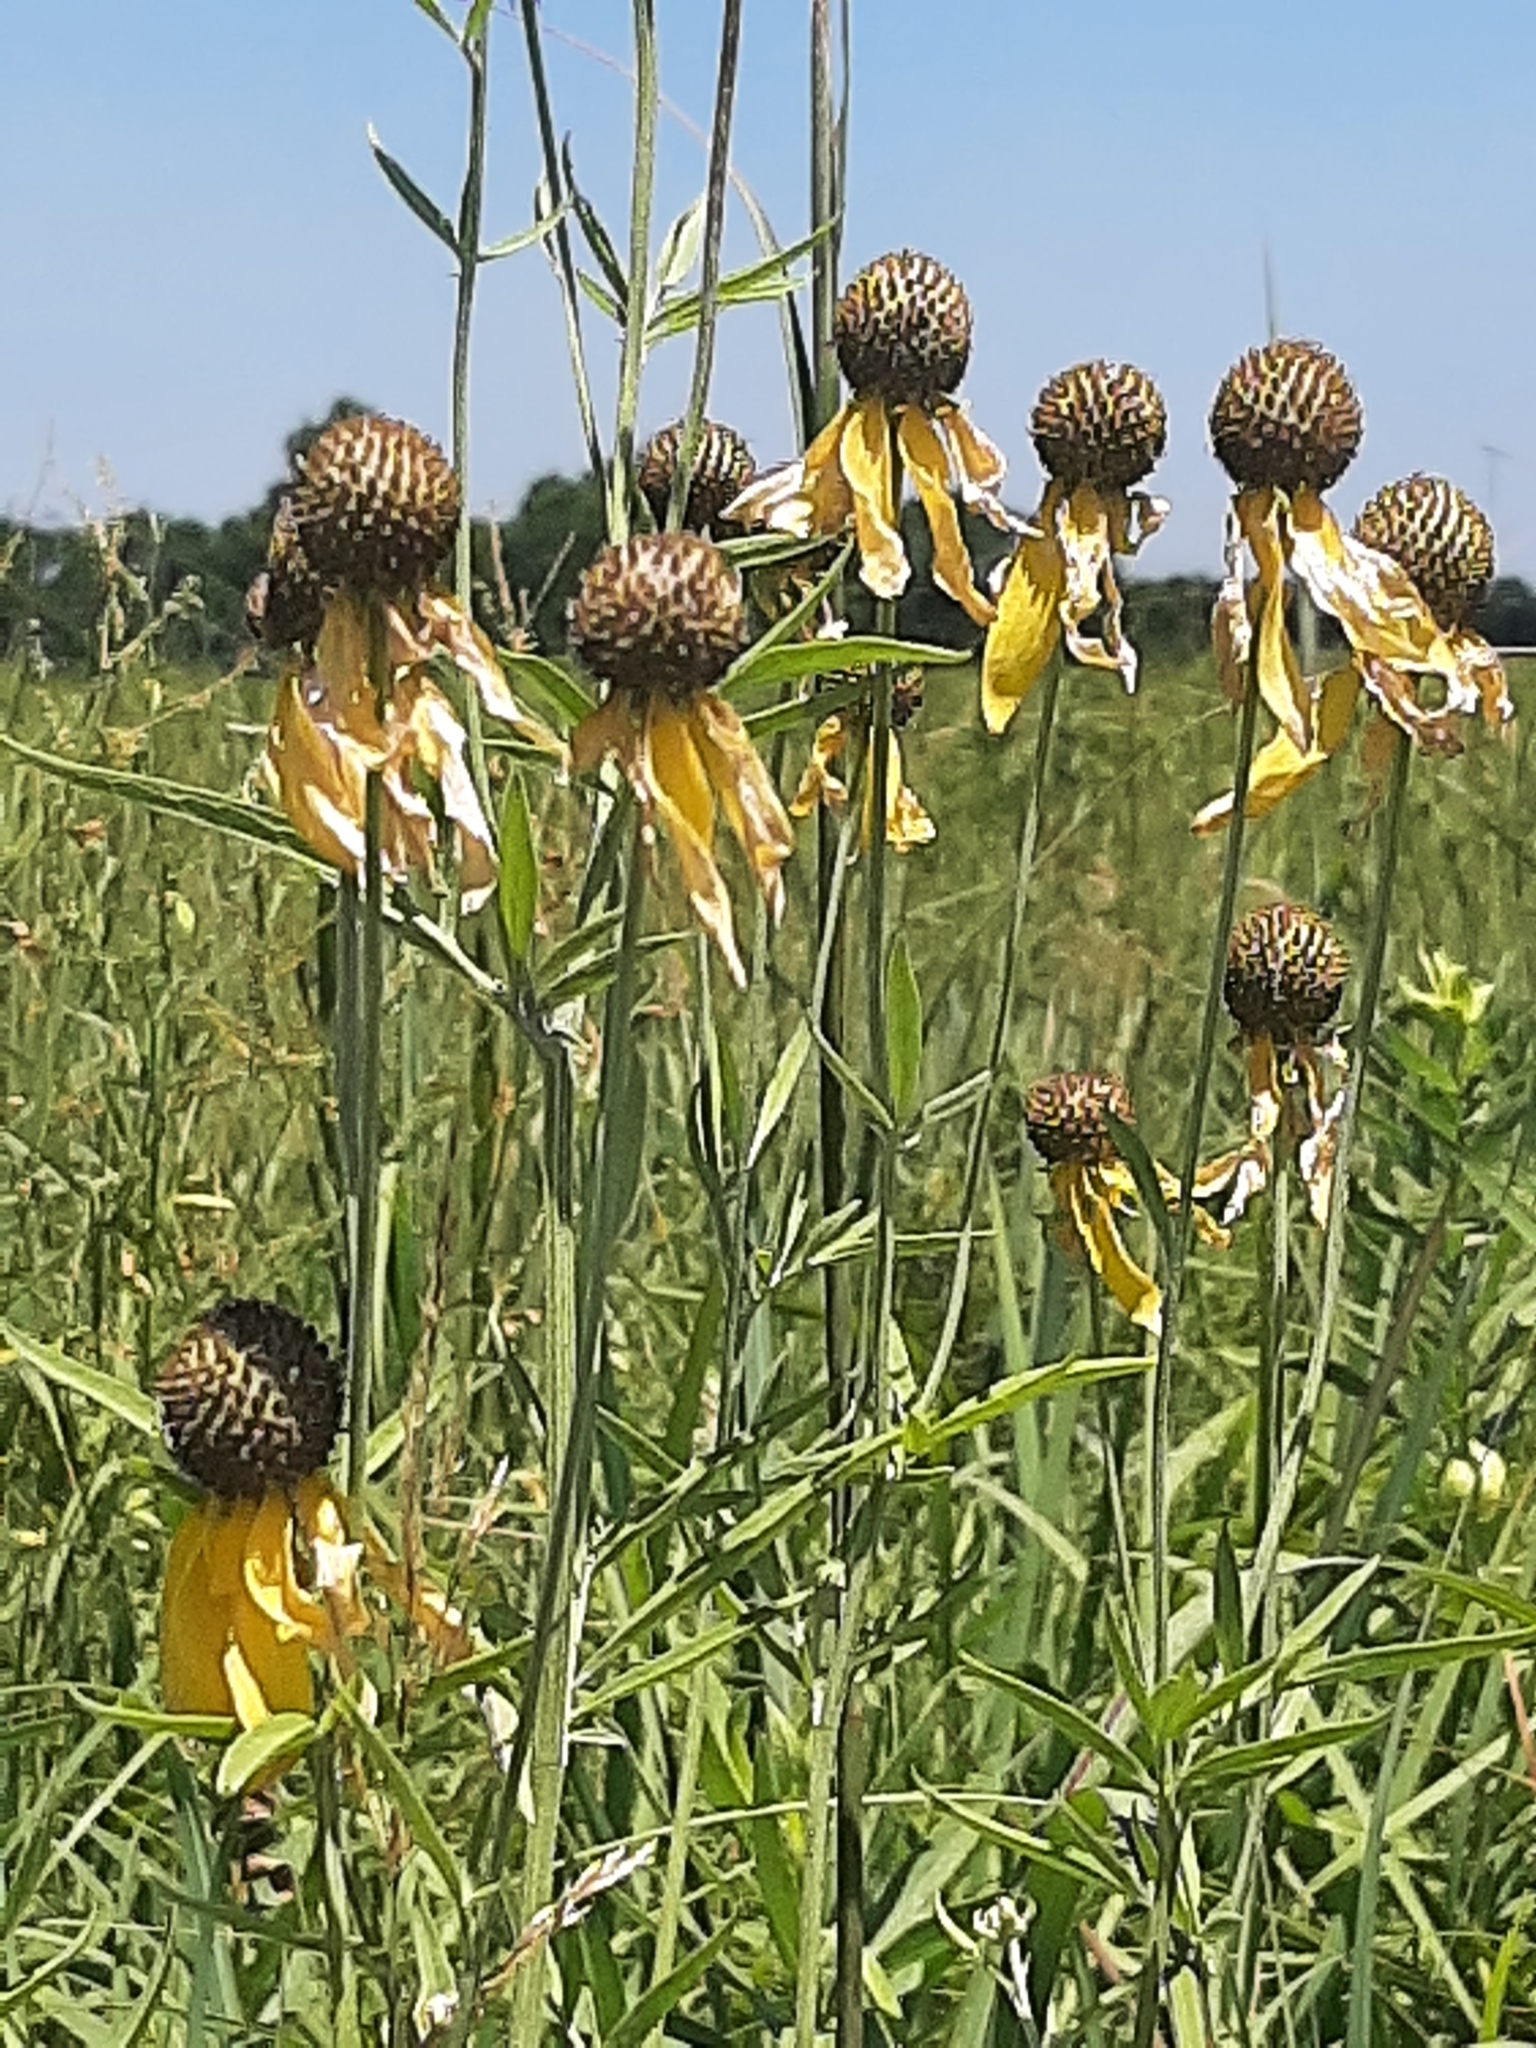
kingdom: Plantae
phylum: Tracheophyta
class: Magnoliopsida
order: Asterales
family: Asteraceae
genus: Ratibida
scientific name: Ratibida pinnata
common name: Drooping prairie-coneflower
